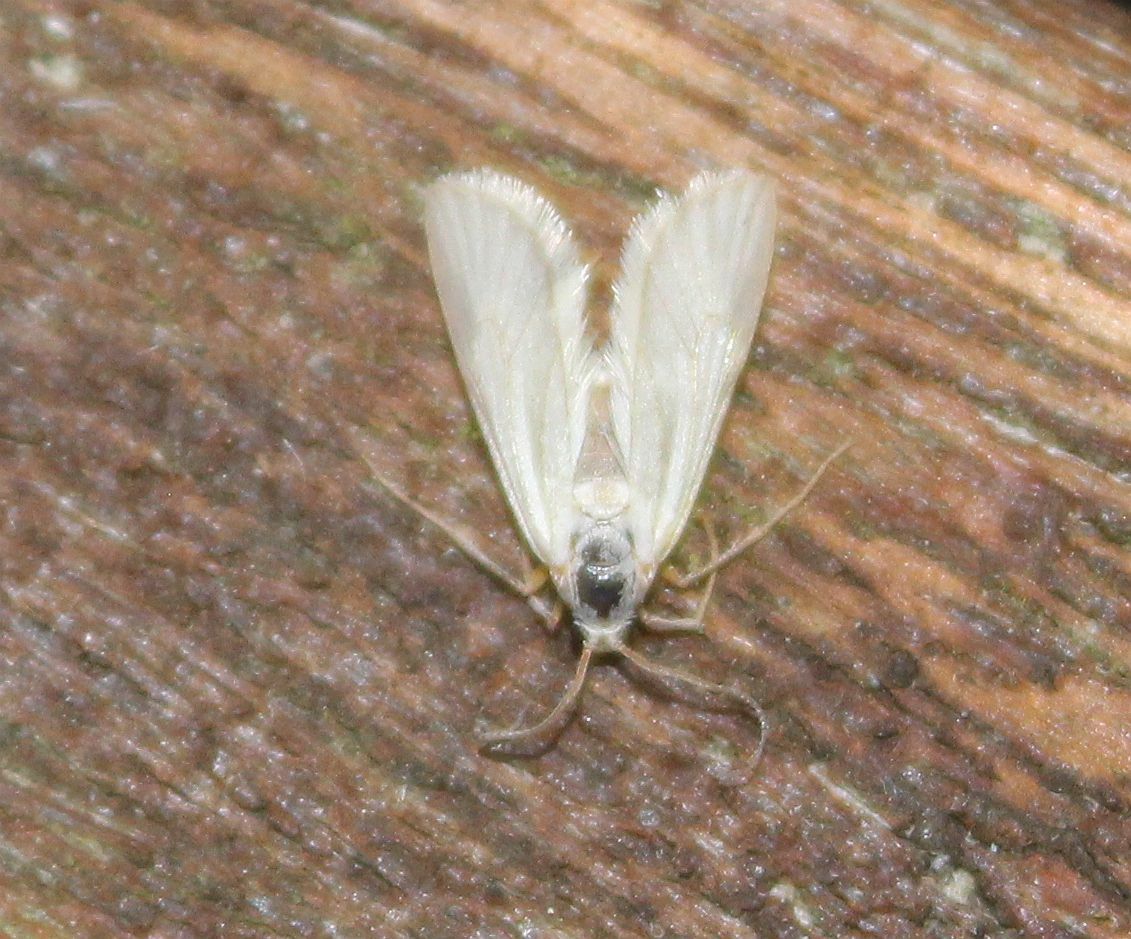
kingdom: Animalia
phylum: Arthropoda
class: Insecta
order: Lepidoptera
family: Crambidae
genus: Acentria
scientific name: Acentria ephemerella
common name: European water moth
